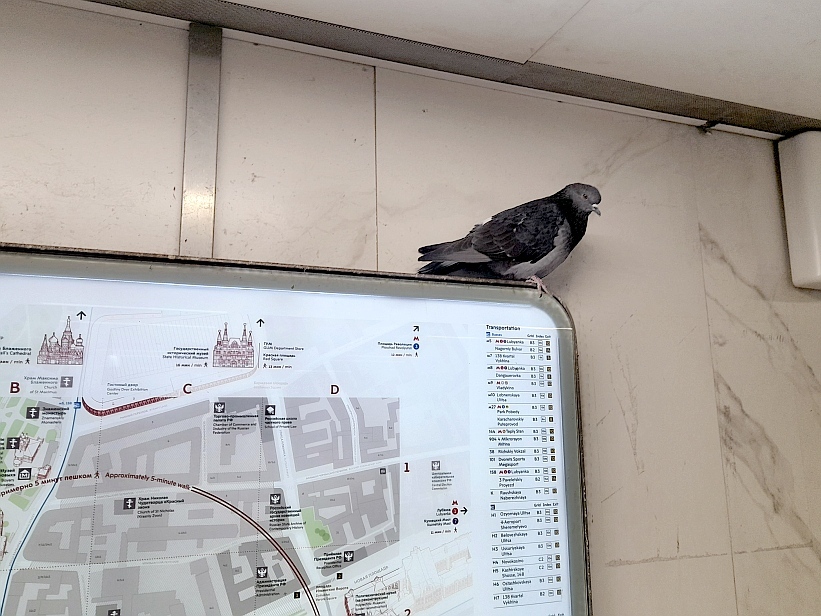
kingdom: Animalia
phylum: Chordata
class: Aves
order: Columbiformes
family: Columbidae
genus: Columba
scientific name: Columba livia
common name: Rock pigeon
